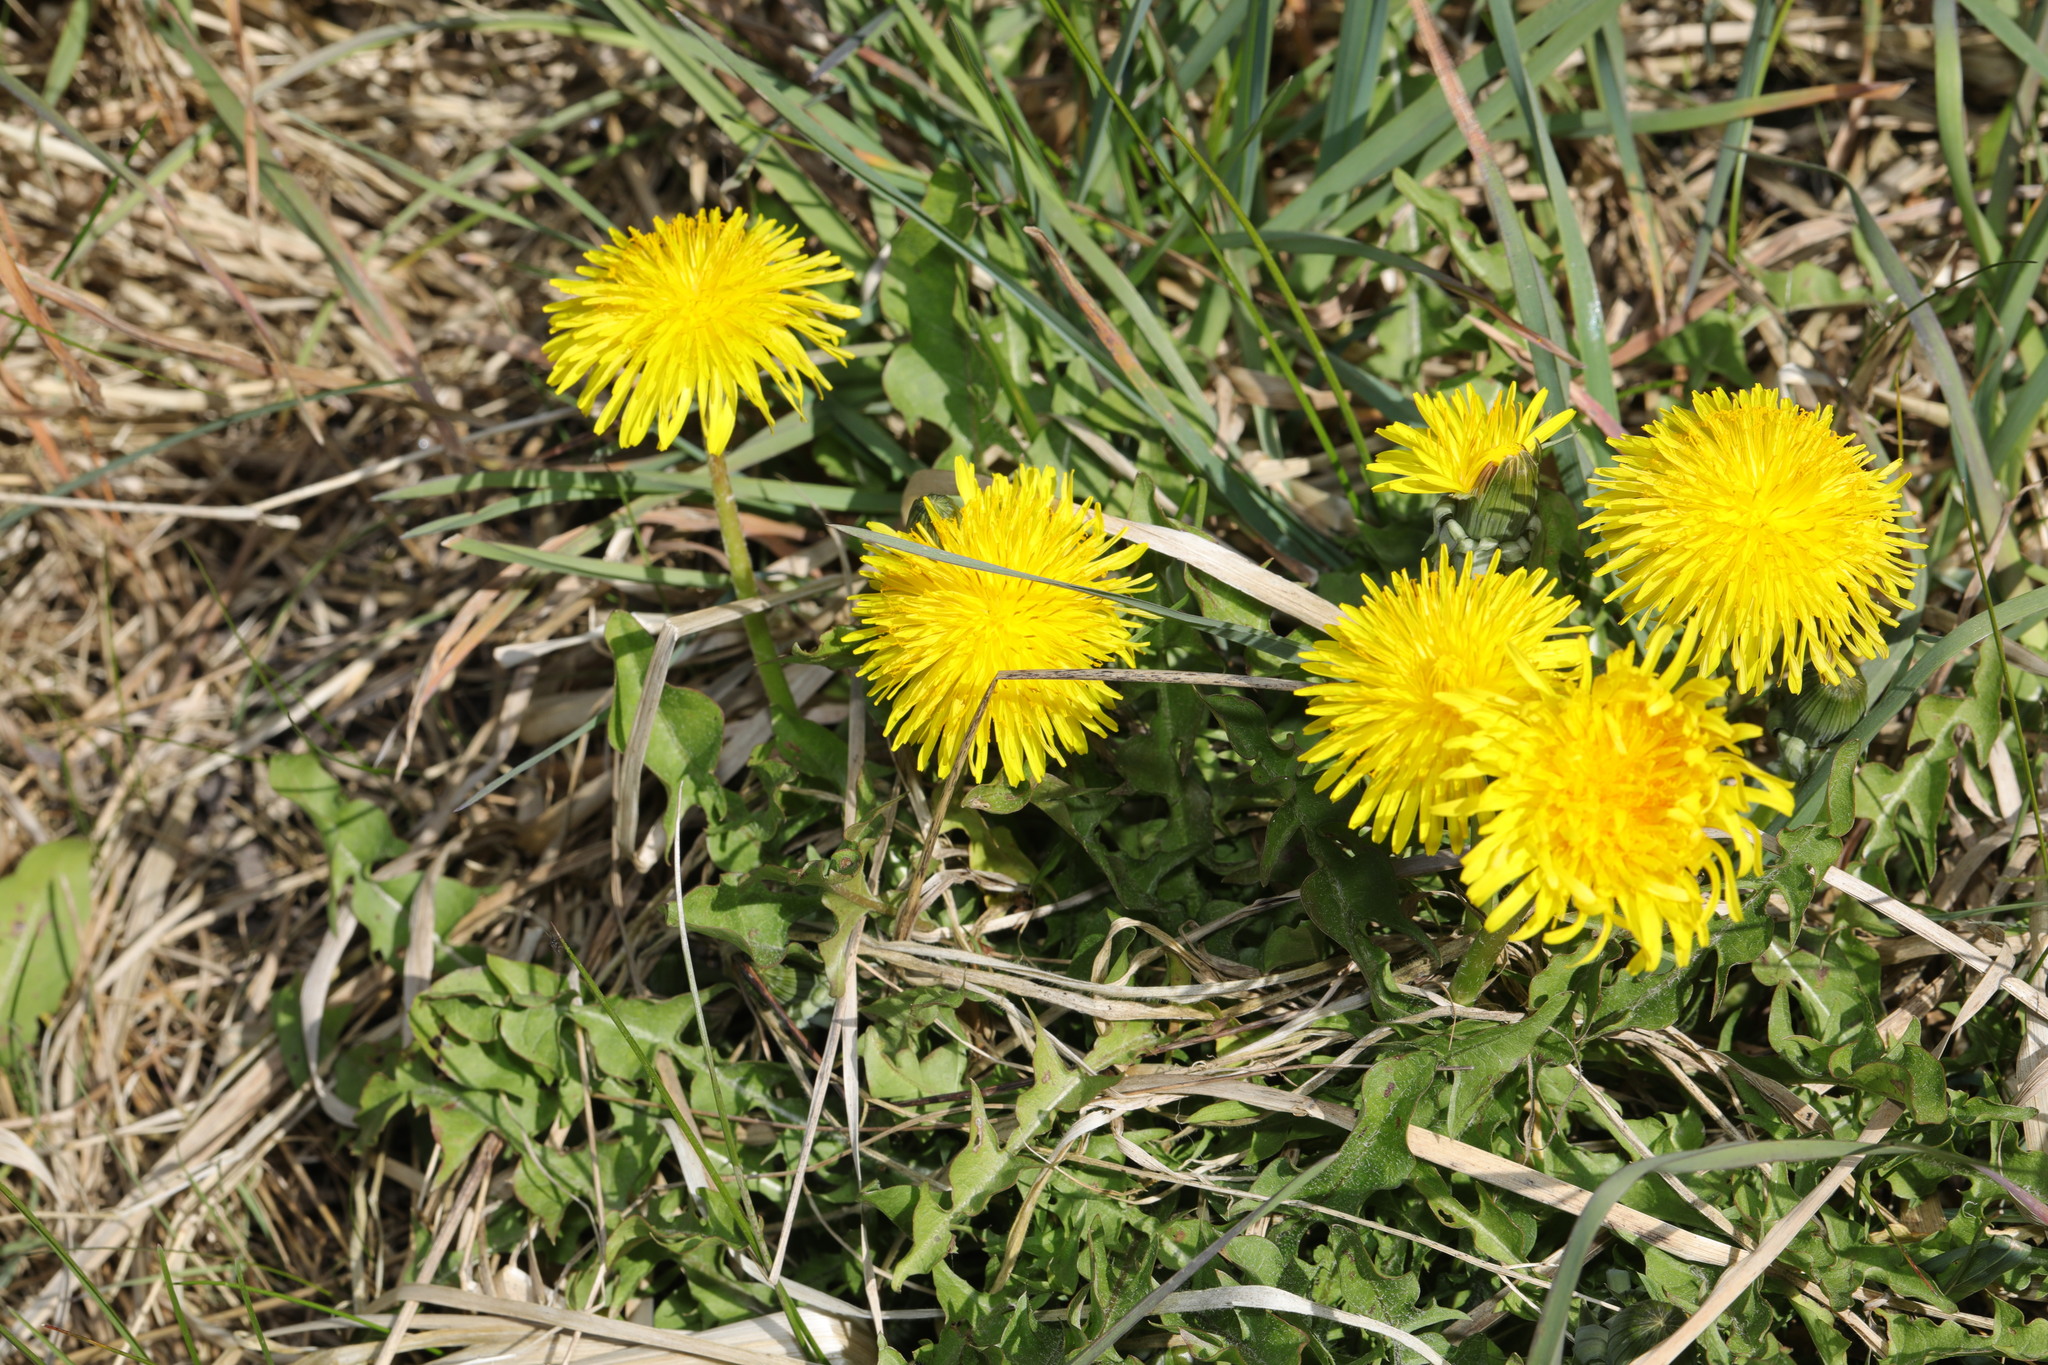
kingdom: Plantae
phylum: Tracheophyta
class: Magnoliopsida
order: Asterales
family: Asteraceae
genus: Taraxacum
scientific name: Taraxacum officinale
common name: Common dandelion
